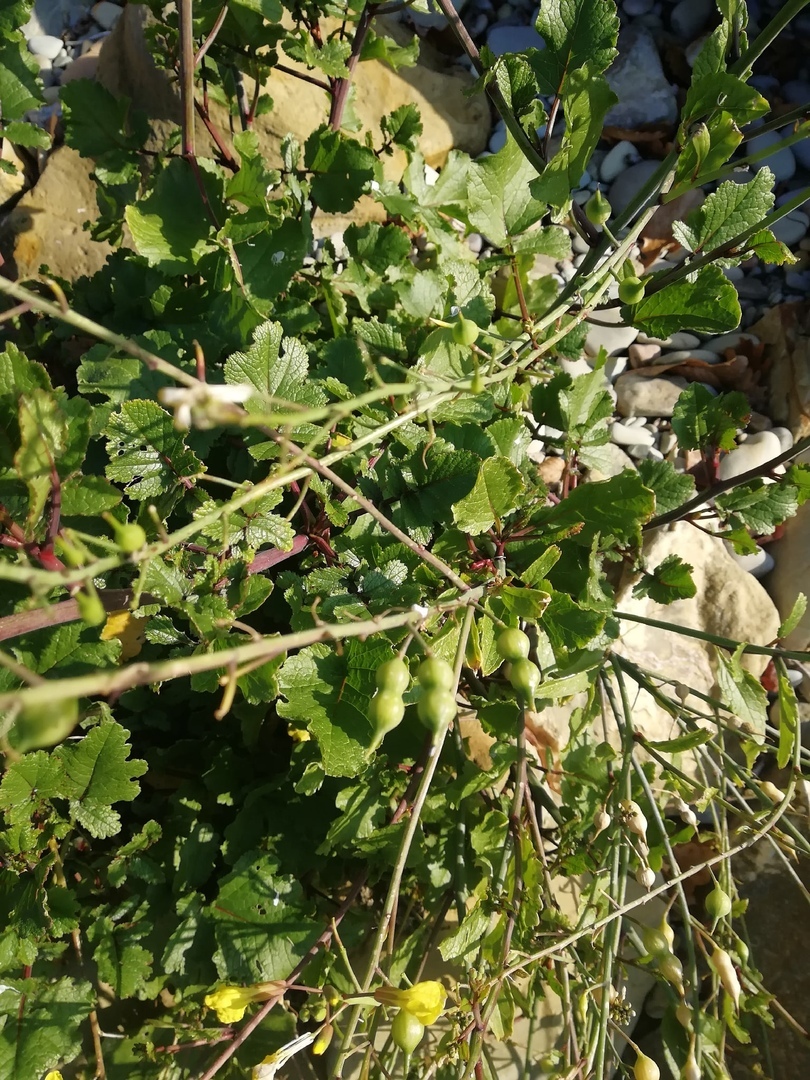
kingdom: Plantae
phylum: Tracheophyta
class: Magnoliopsida
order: Brassicales
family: Brassicaceae
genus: Raphanus
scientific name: Raphanus raphanistrum
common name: Wild radish
